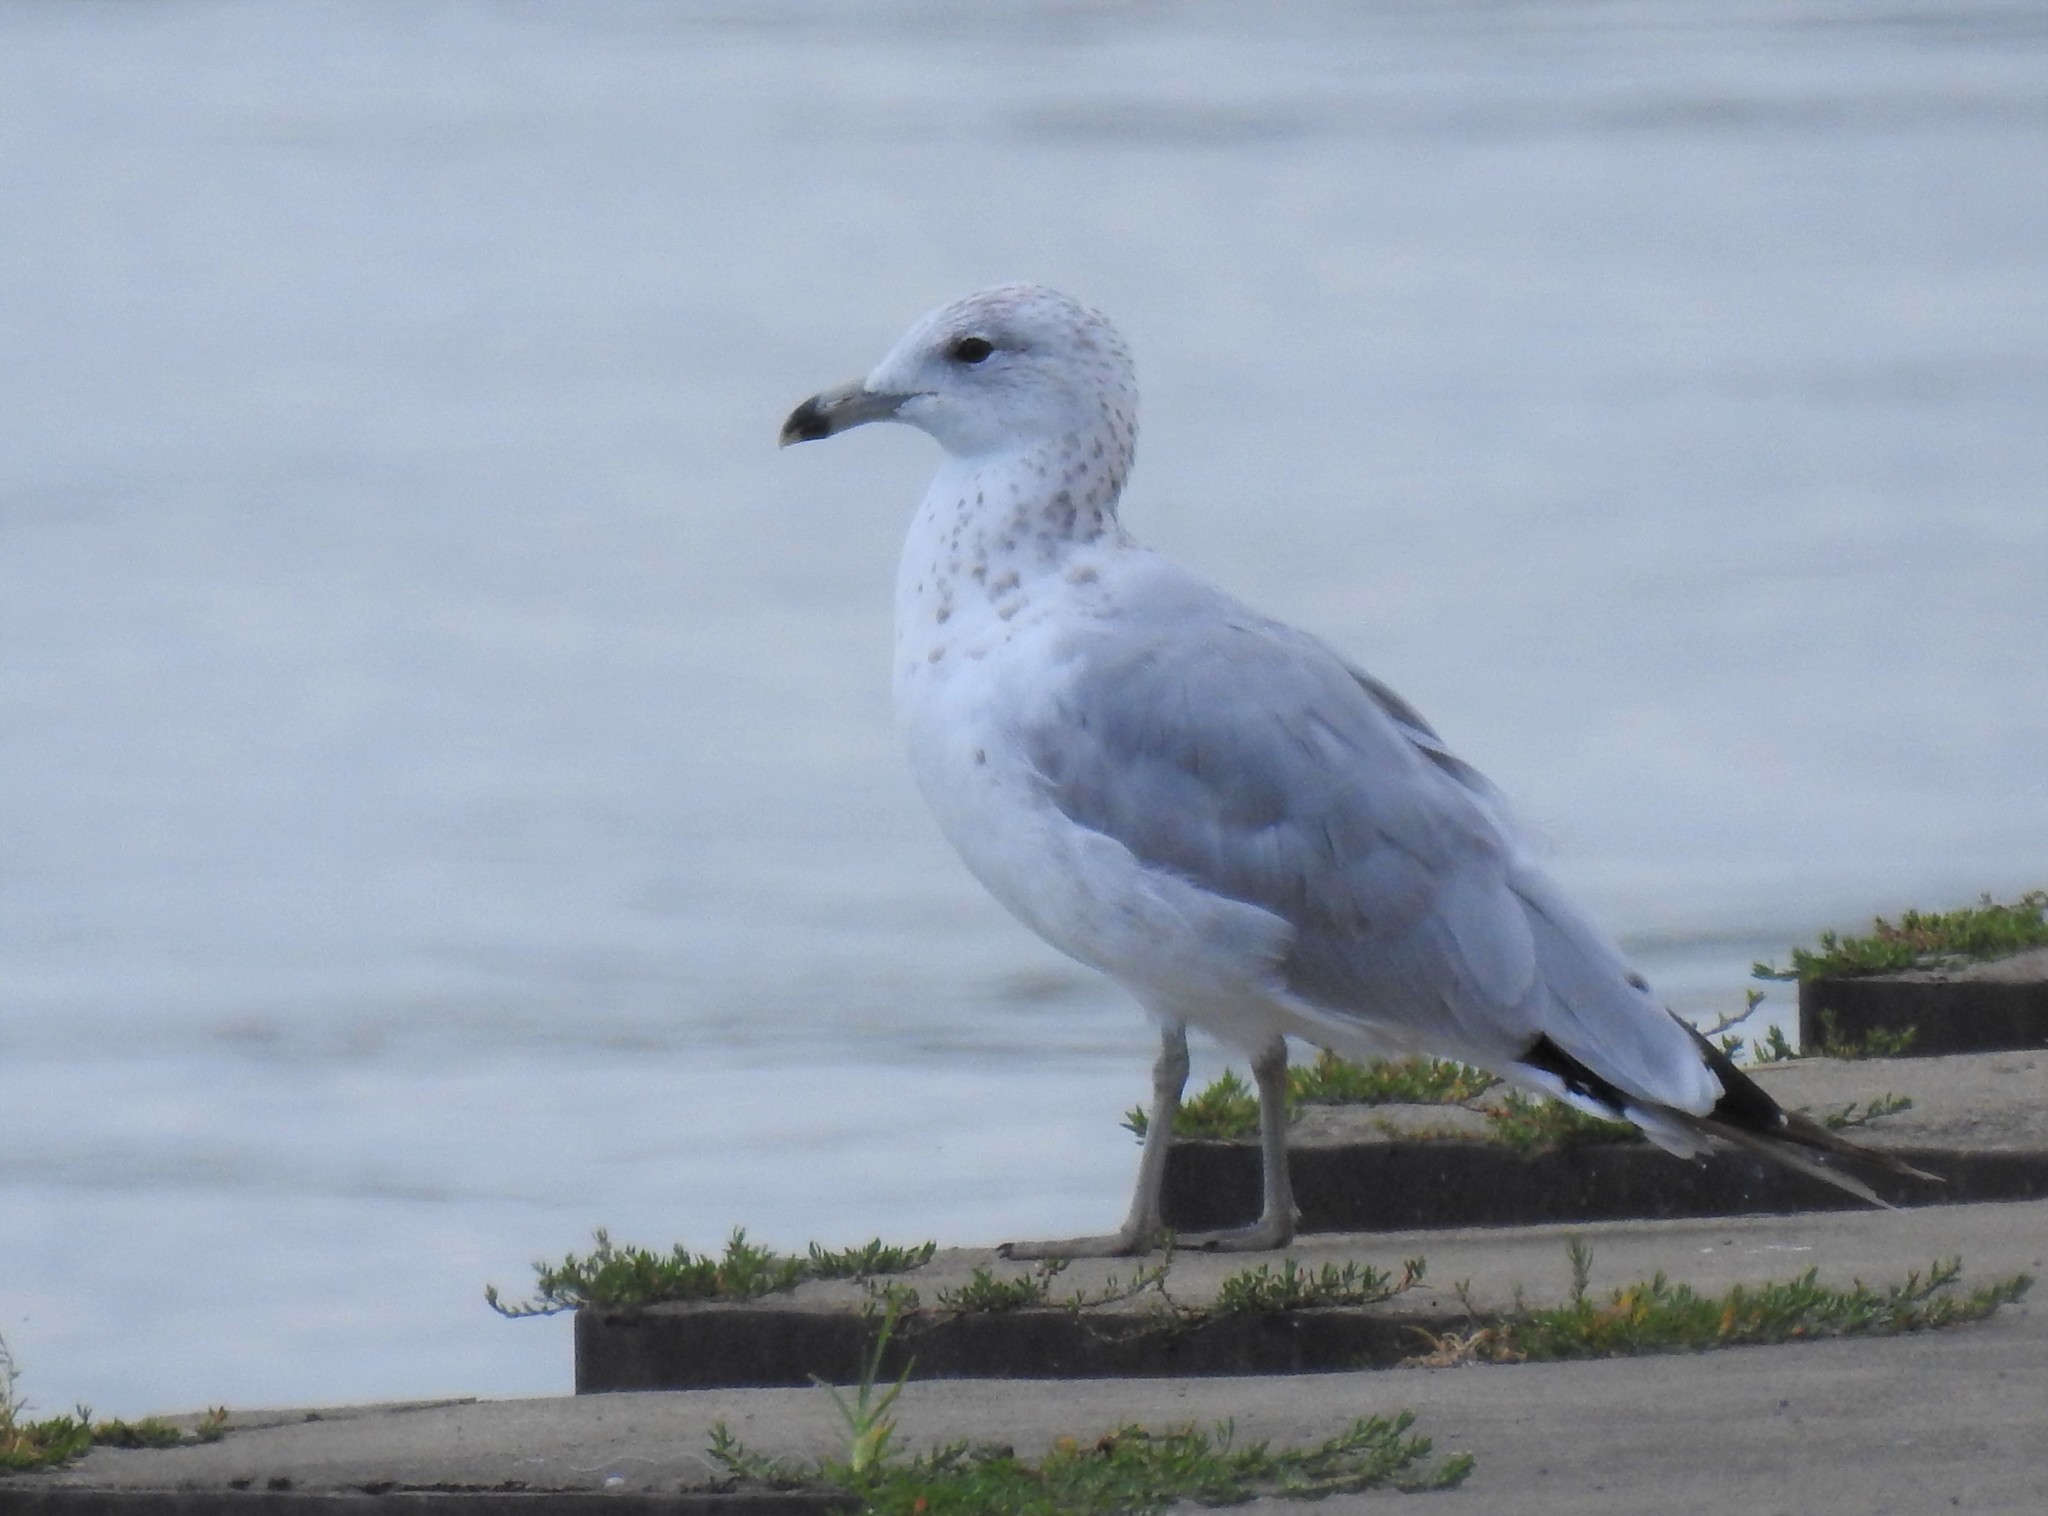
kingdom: Animalia
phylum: Chordata
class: Aves
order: Charadriiformes
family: Laridae
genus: Larus
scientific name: Larus delawarensis
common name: Ring-billed gull
